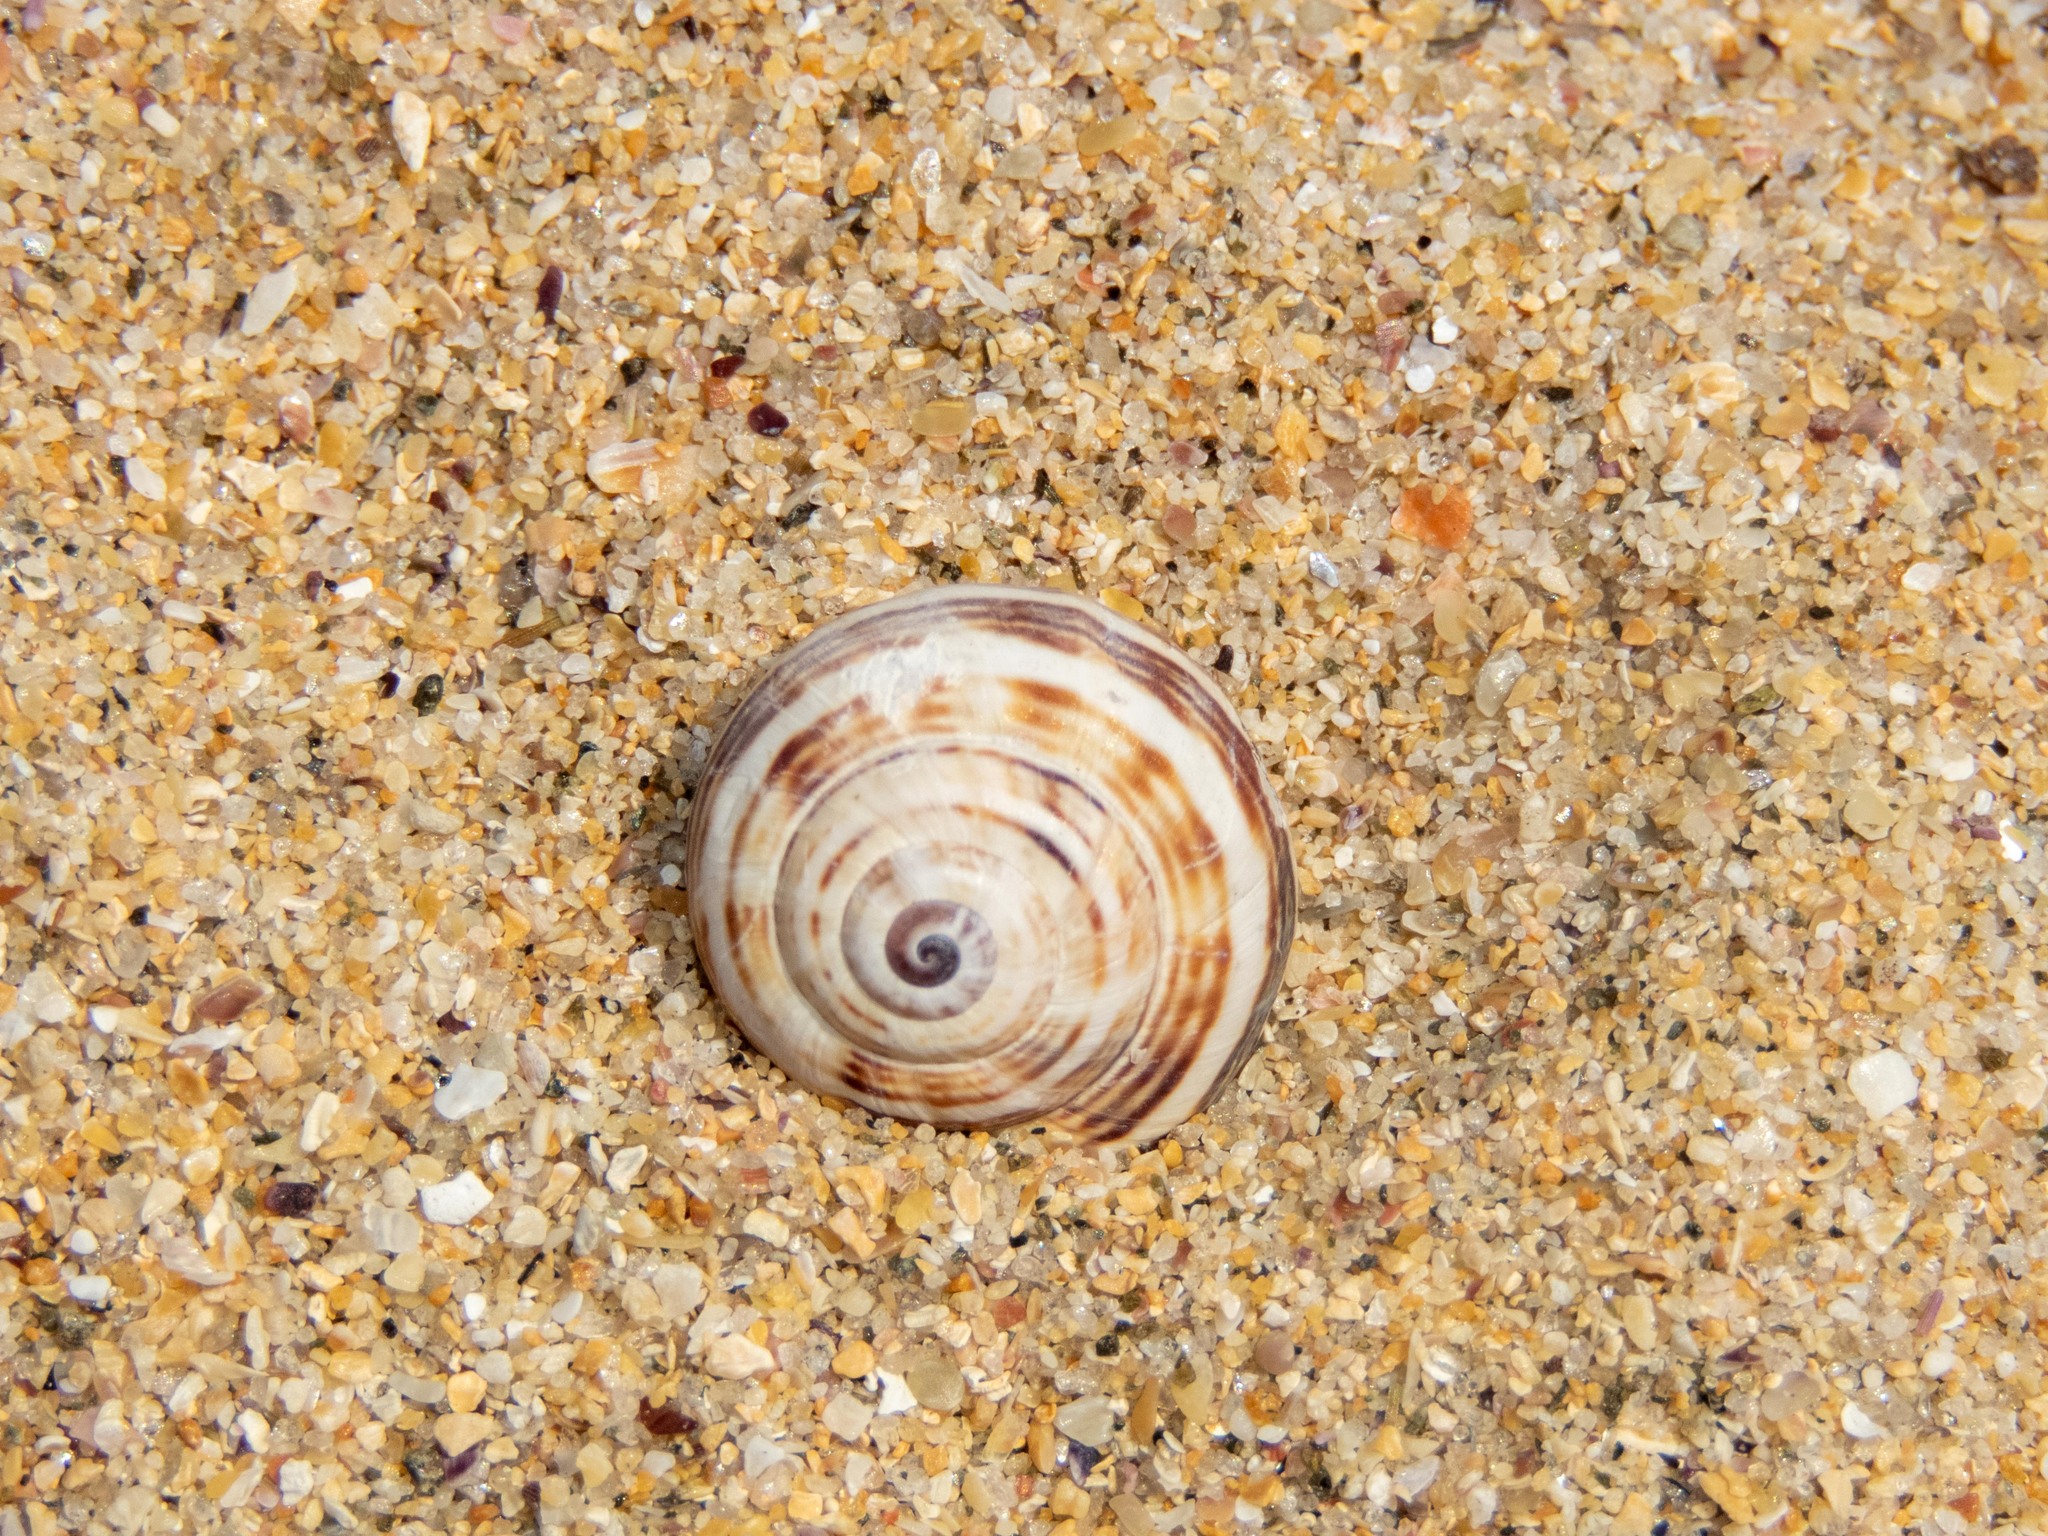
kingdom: Animalia
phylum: Mollusca
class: Gastropoda
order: Stylommatophora
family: Helicidae
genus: Theba
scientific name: Theba pisana
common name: White snail
